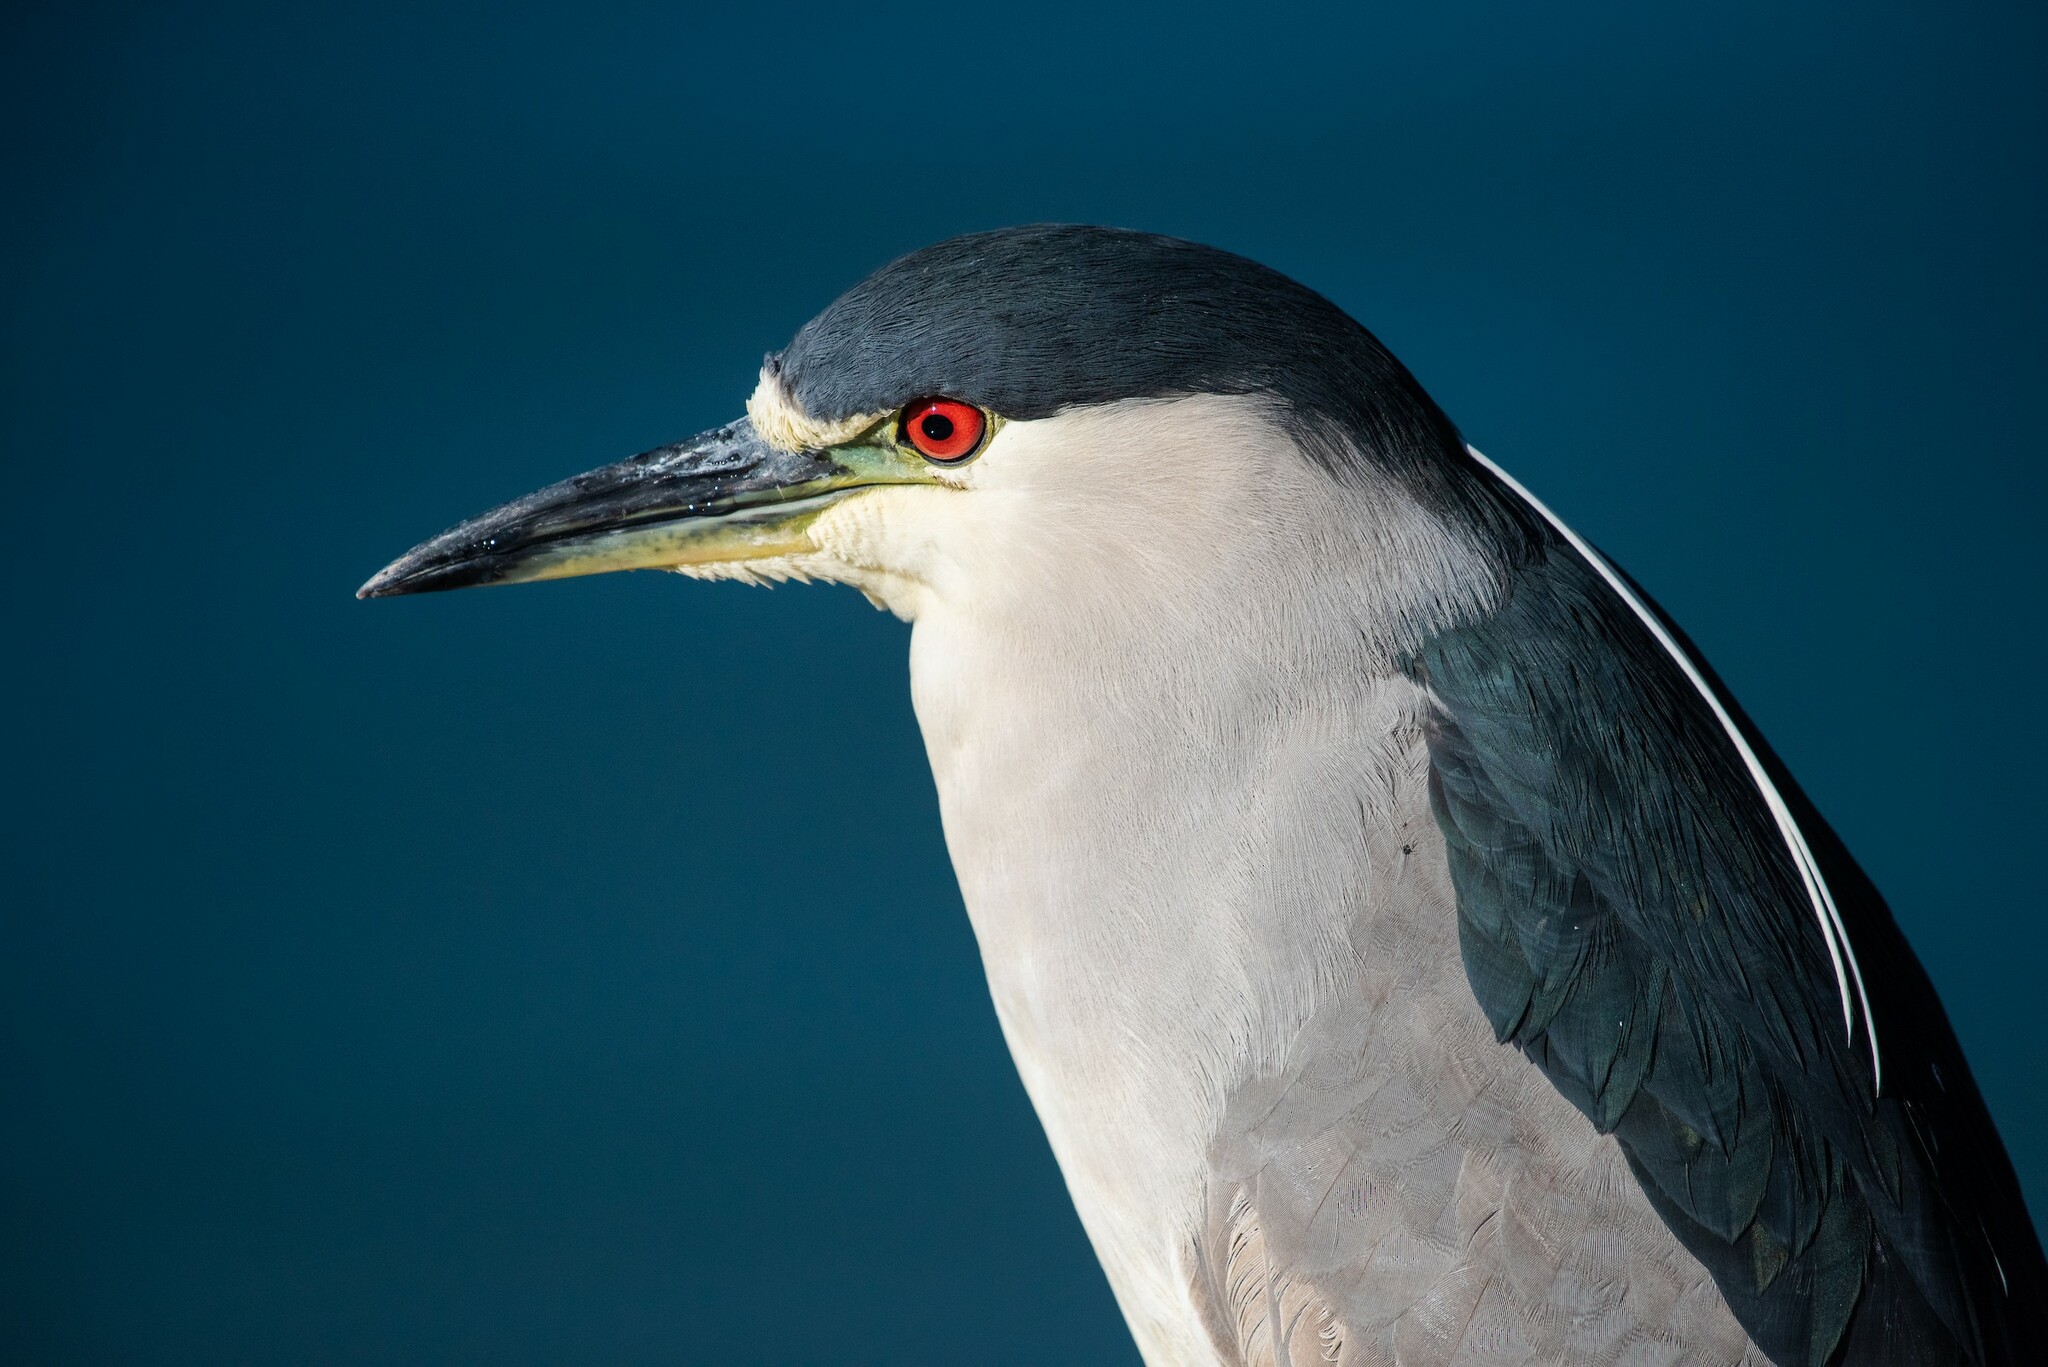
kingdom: Animalia
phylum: Chordata
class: Aves
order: Pelecaniformes
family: Ardeidae
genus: Nycticorax
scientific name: Nycticorax nycticorax
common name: Black-crowned night heron
